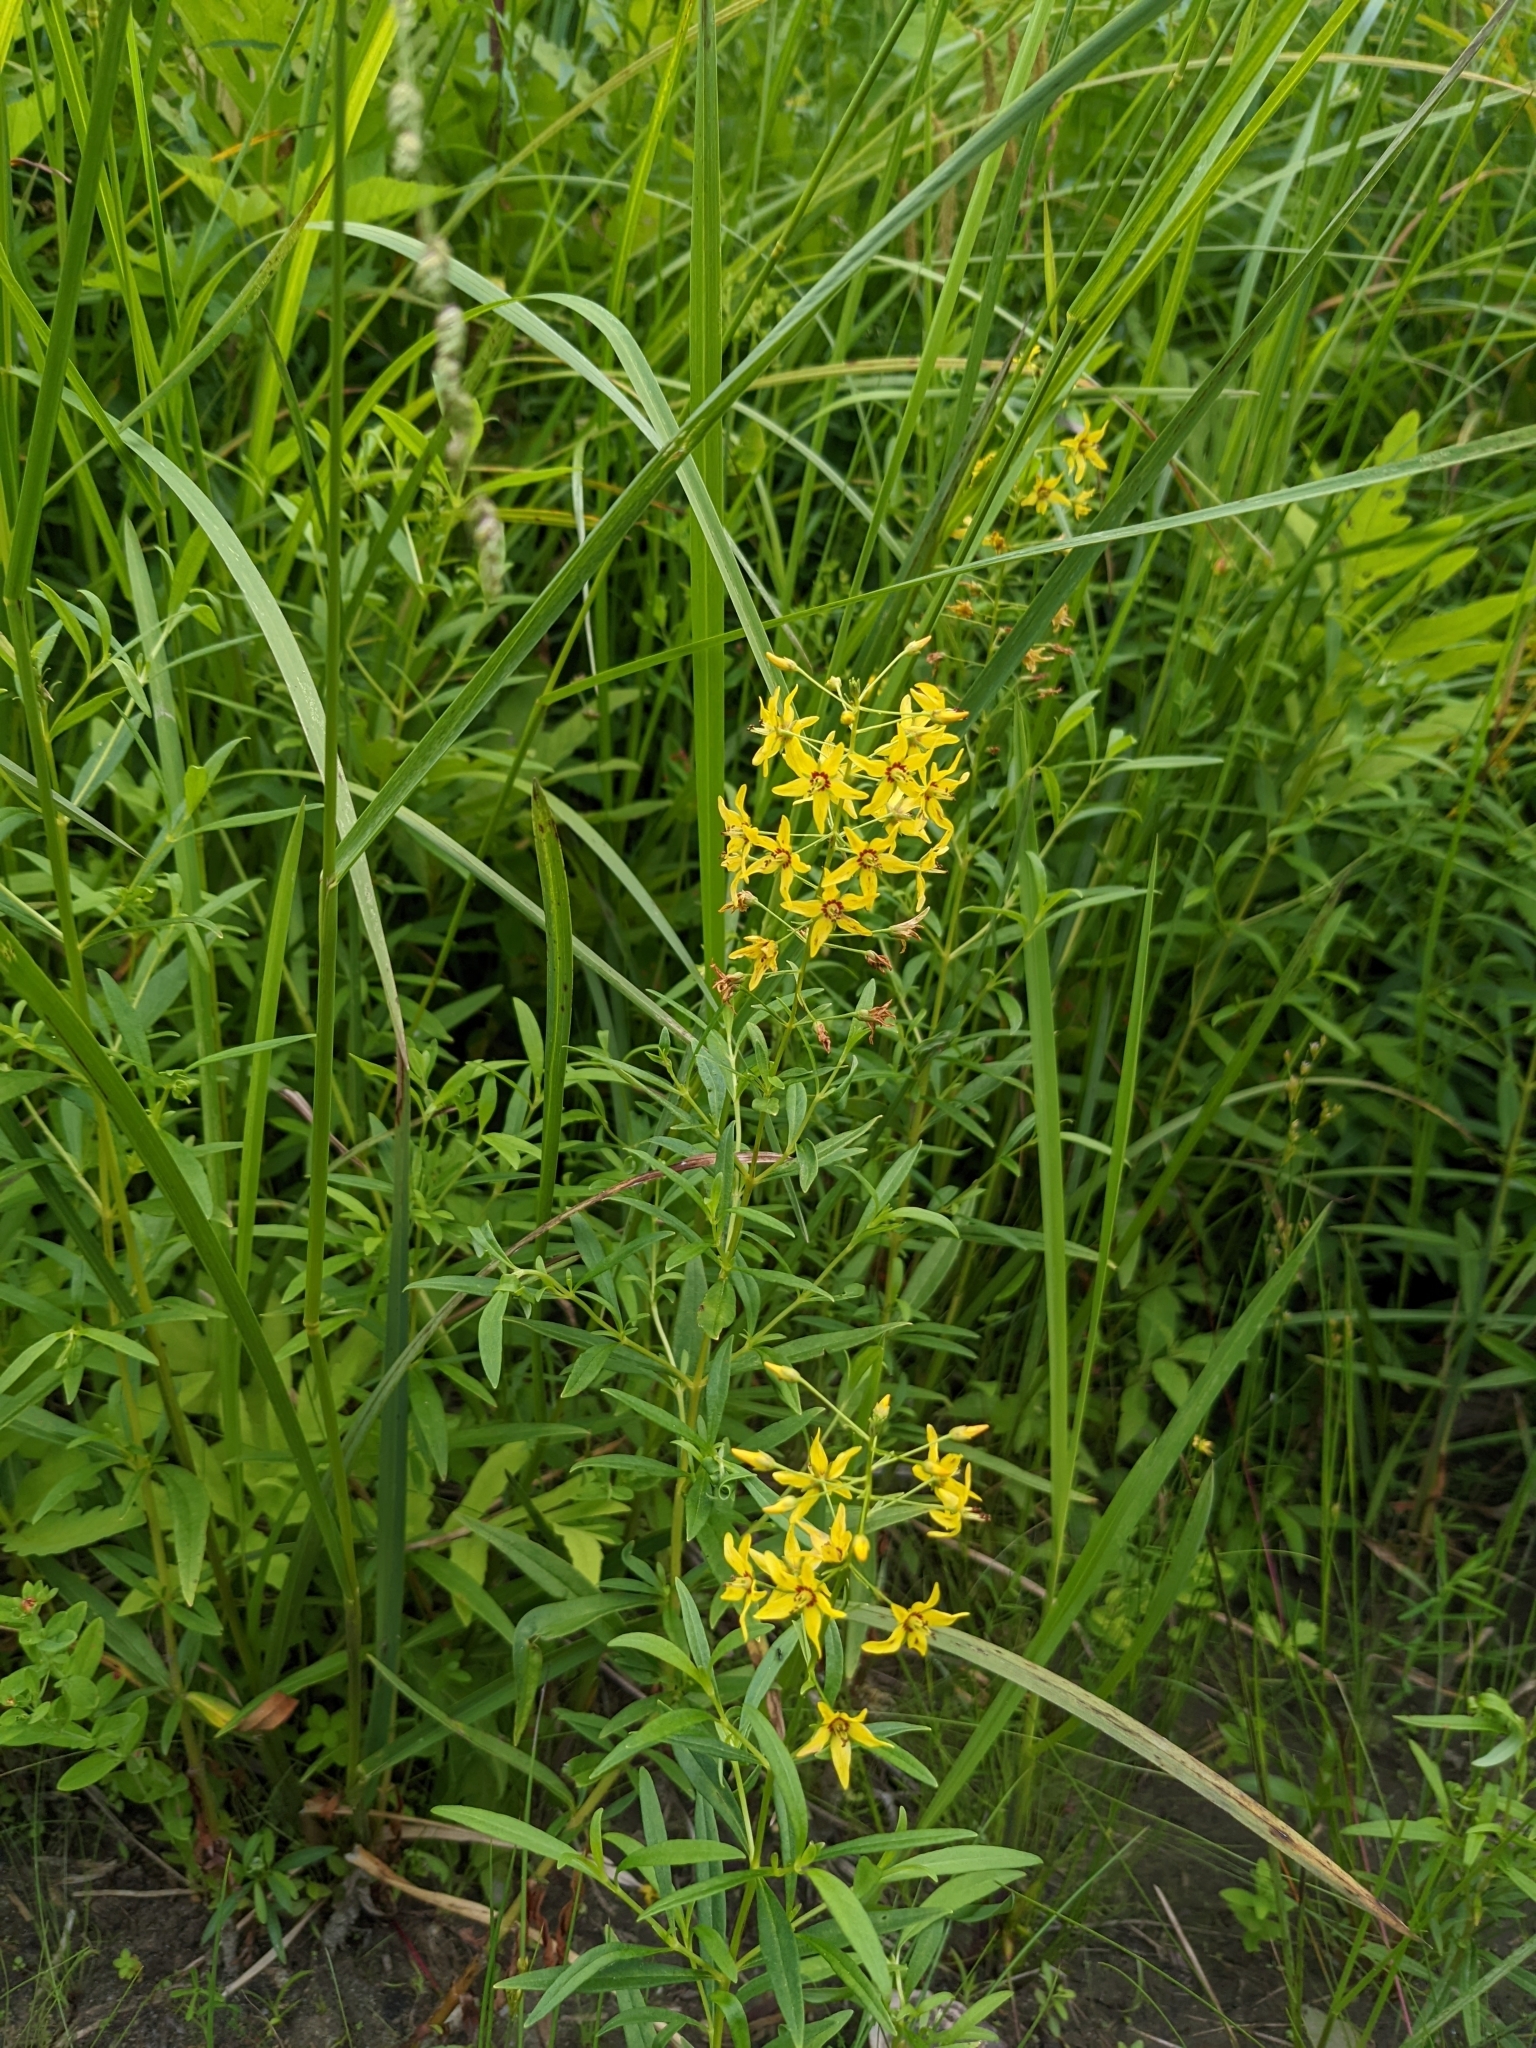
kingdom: Plantae
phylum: Tracheophyta
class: Magnoliopsida
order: Ericales
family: Primulaceae
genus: Lysimachia
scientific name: Lysimachia terrestris
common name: Lake loosestrife
